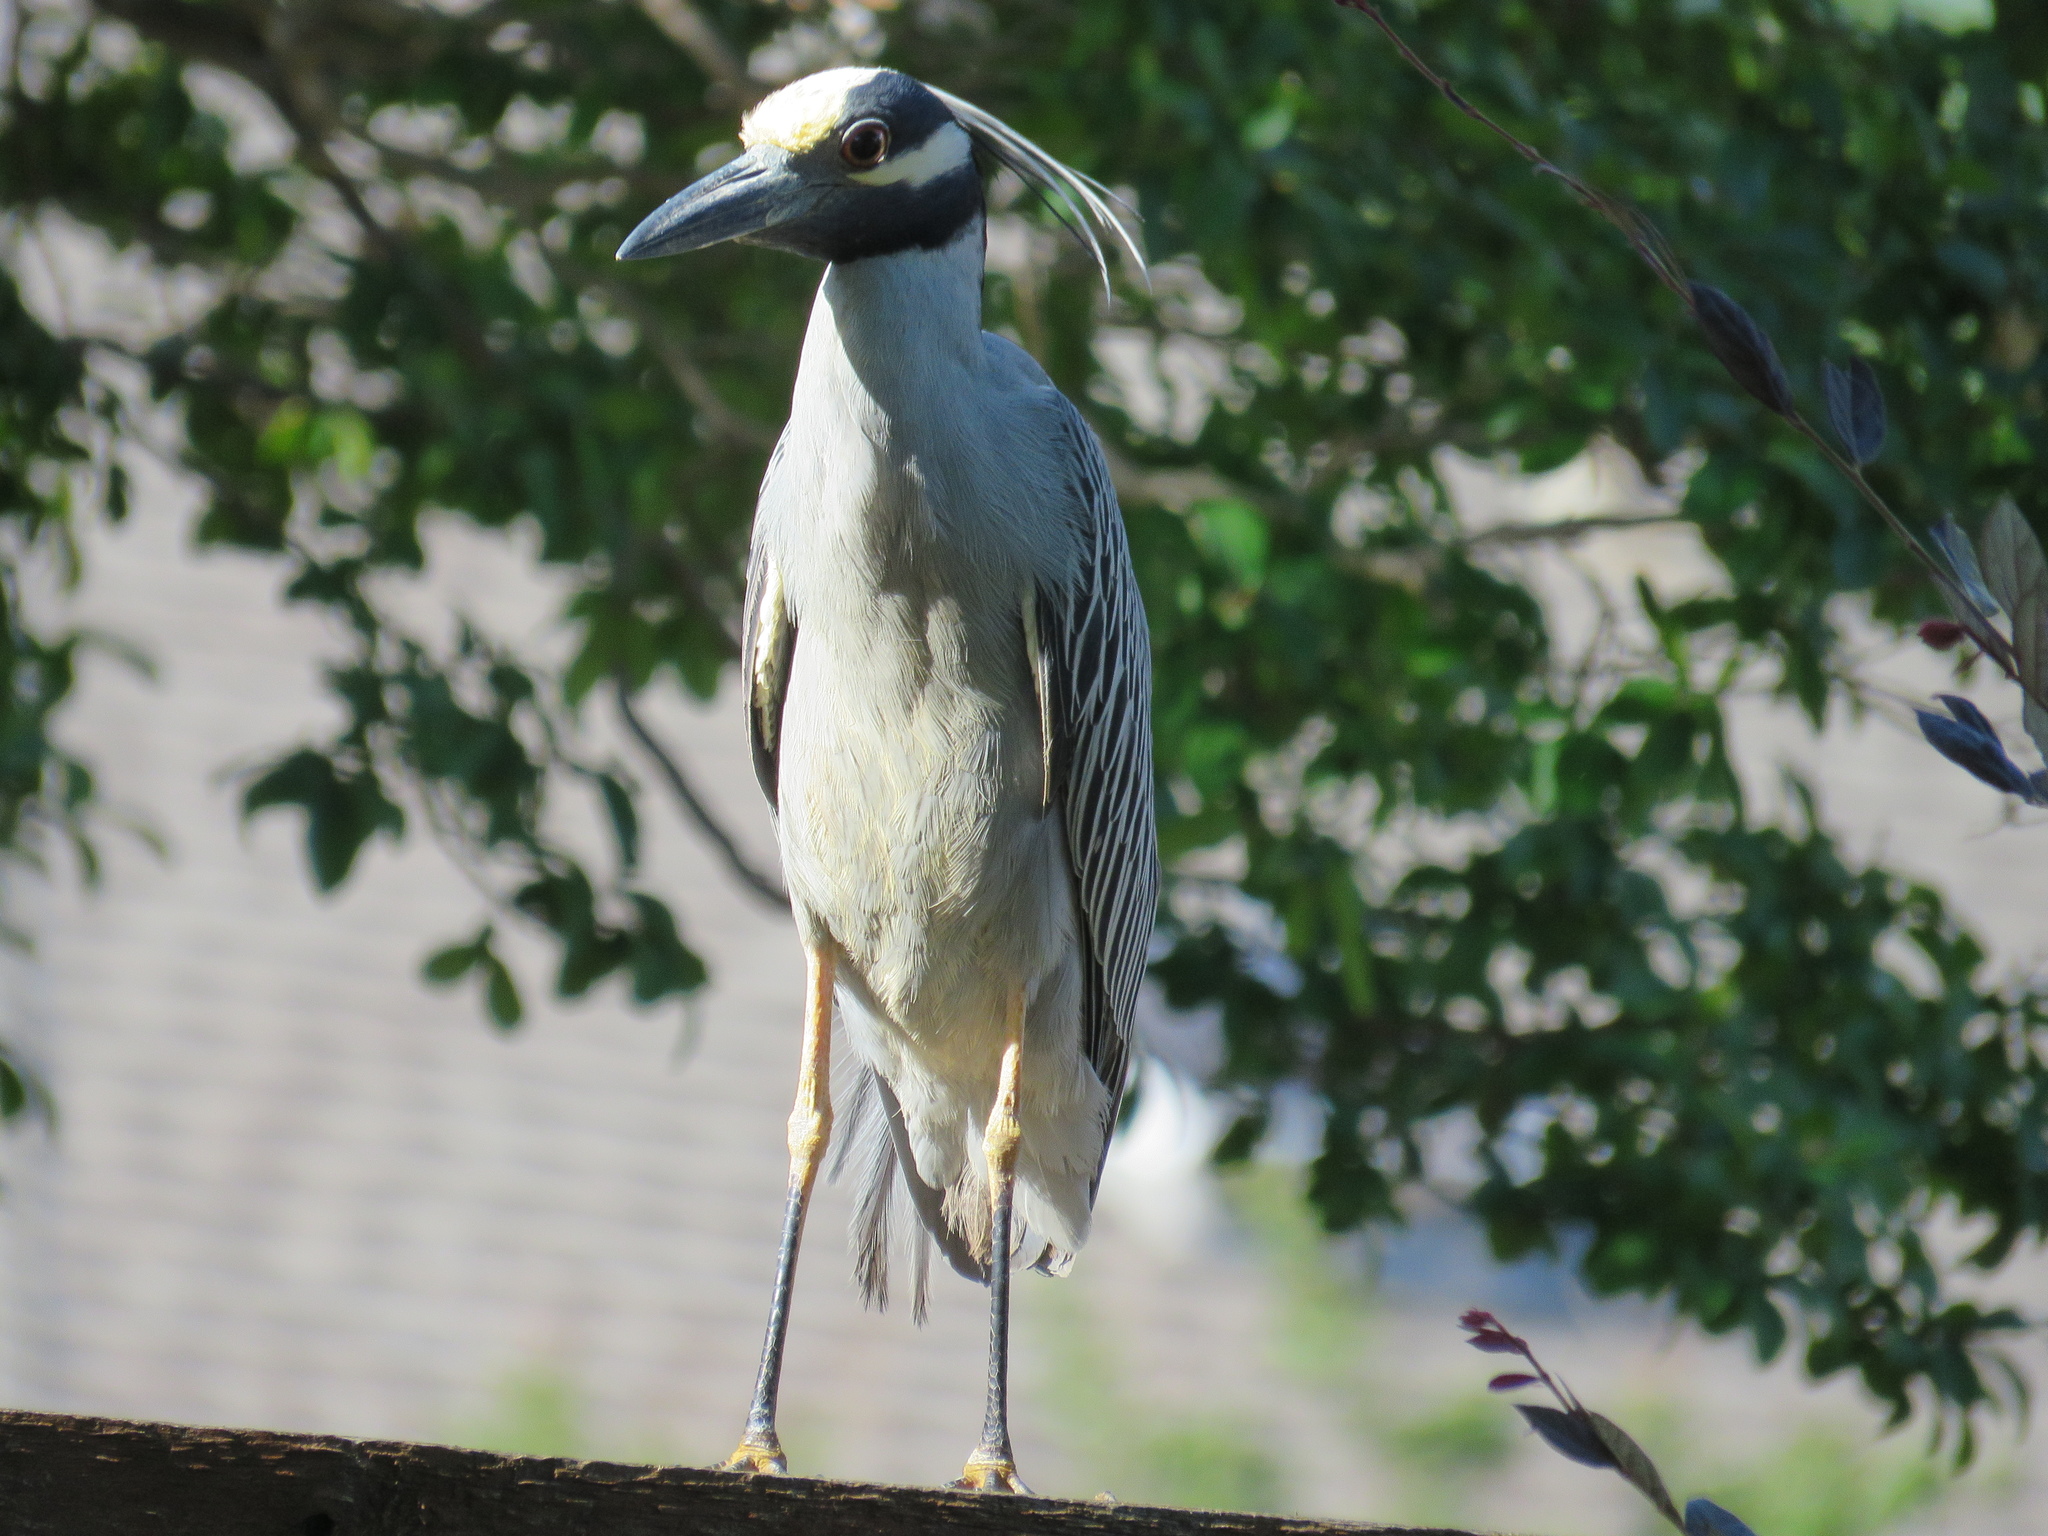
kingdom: Animalia
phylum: Chordata
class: Aves
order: Pelecaniformes
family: Ardeidae
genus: Nyctanassa
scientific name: Nyctanassa violacea
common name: Yellow-crowned night heron
